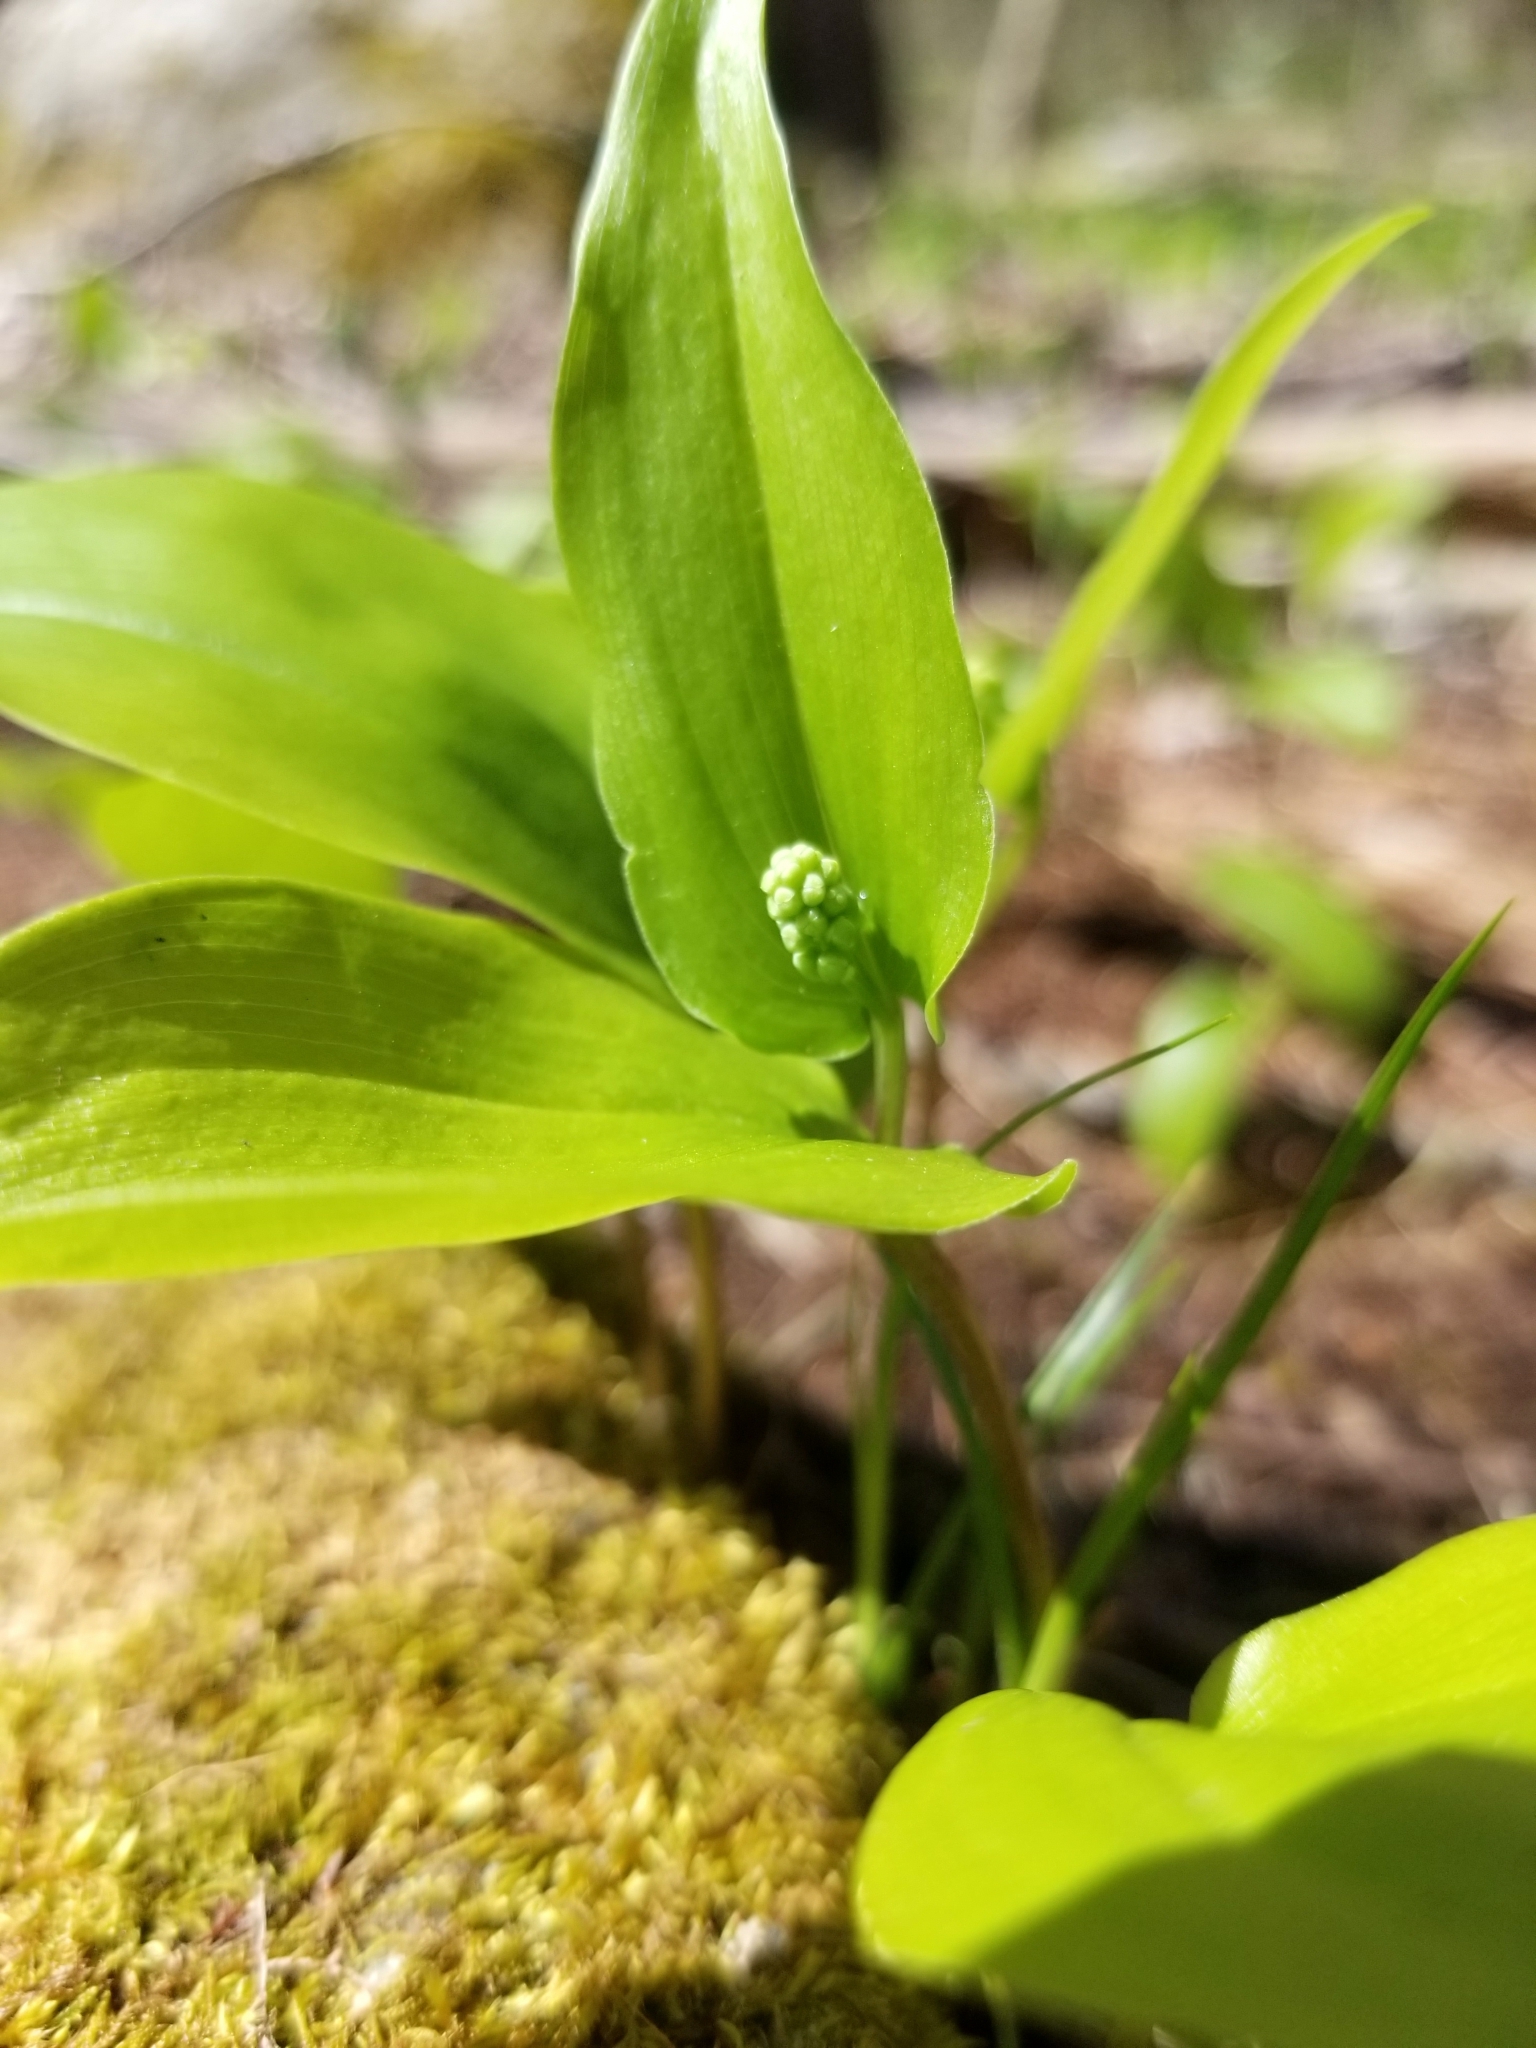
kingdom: Plantae
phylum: Tracheophyta
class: Liliopsida
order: Asparagales
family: Asparagaceae
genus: Maianthemum
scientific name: Maianthemum canadense
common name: False lily-of-the-valley
